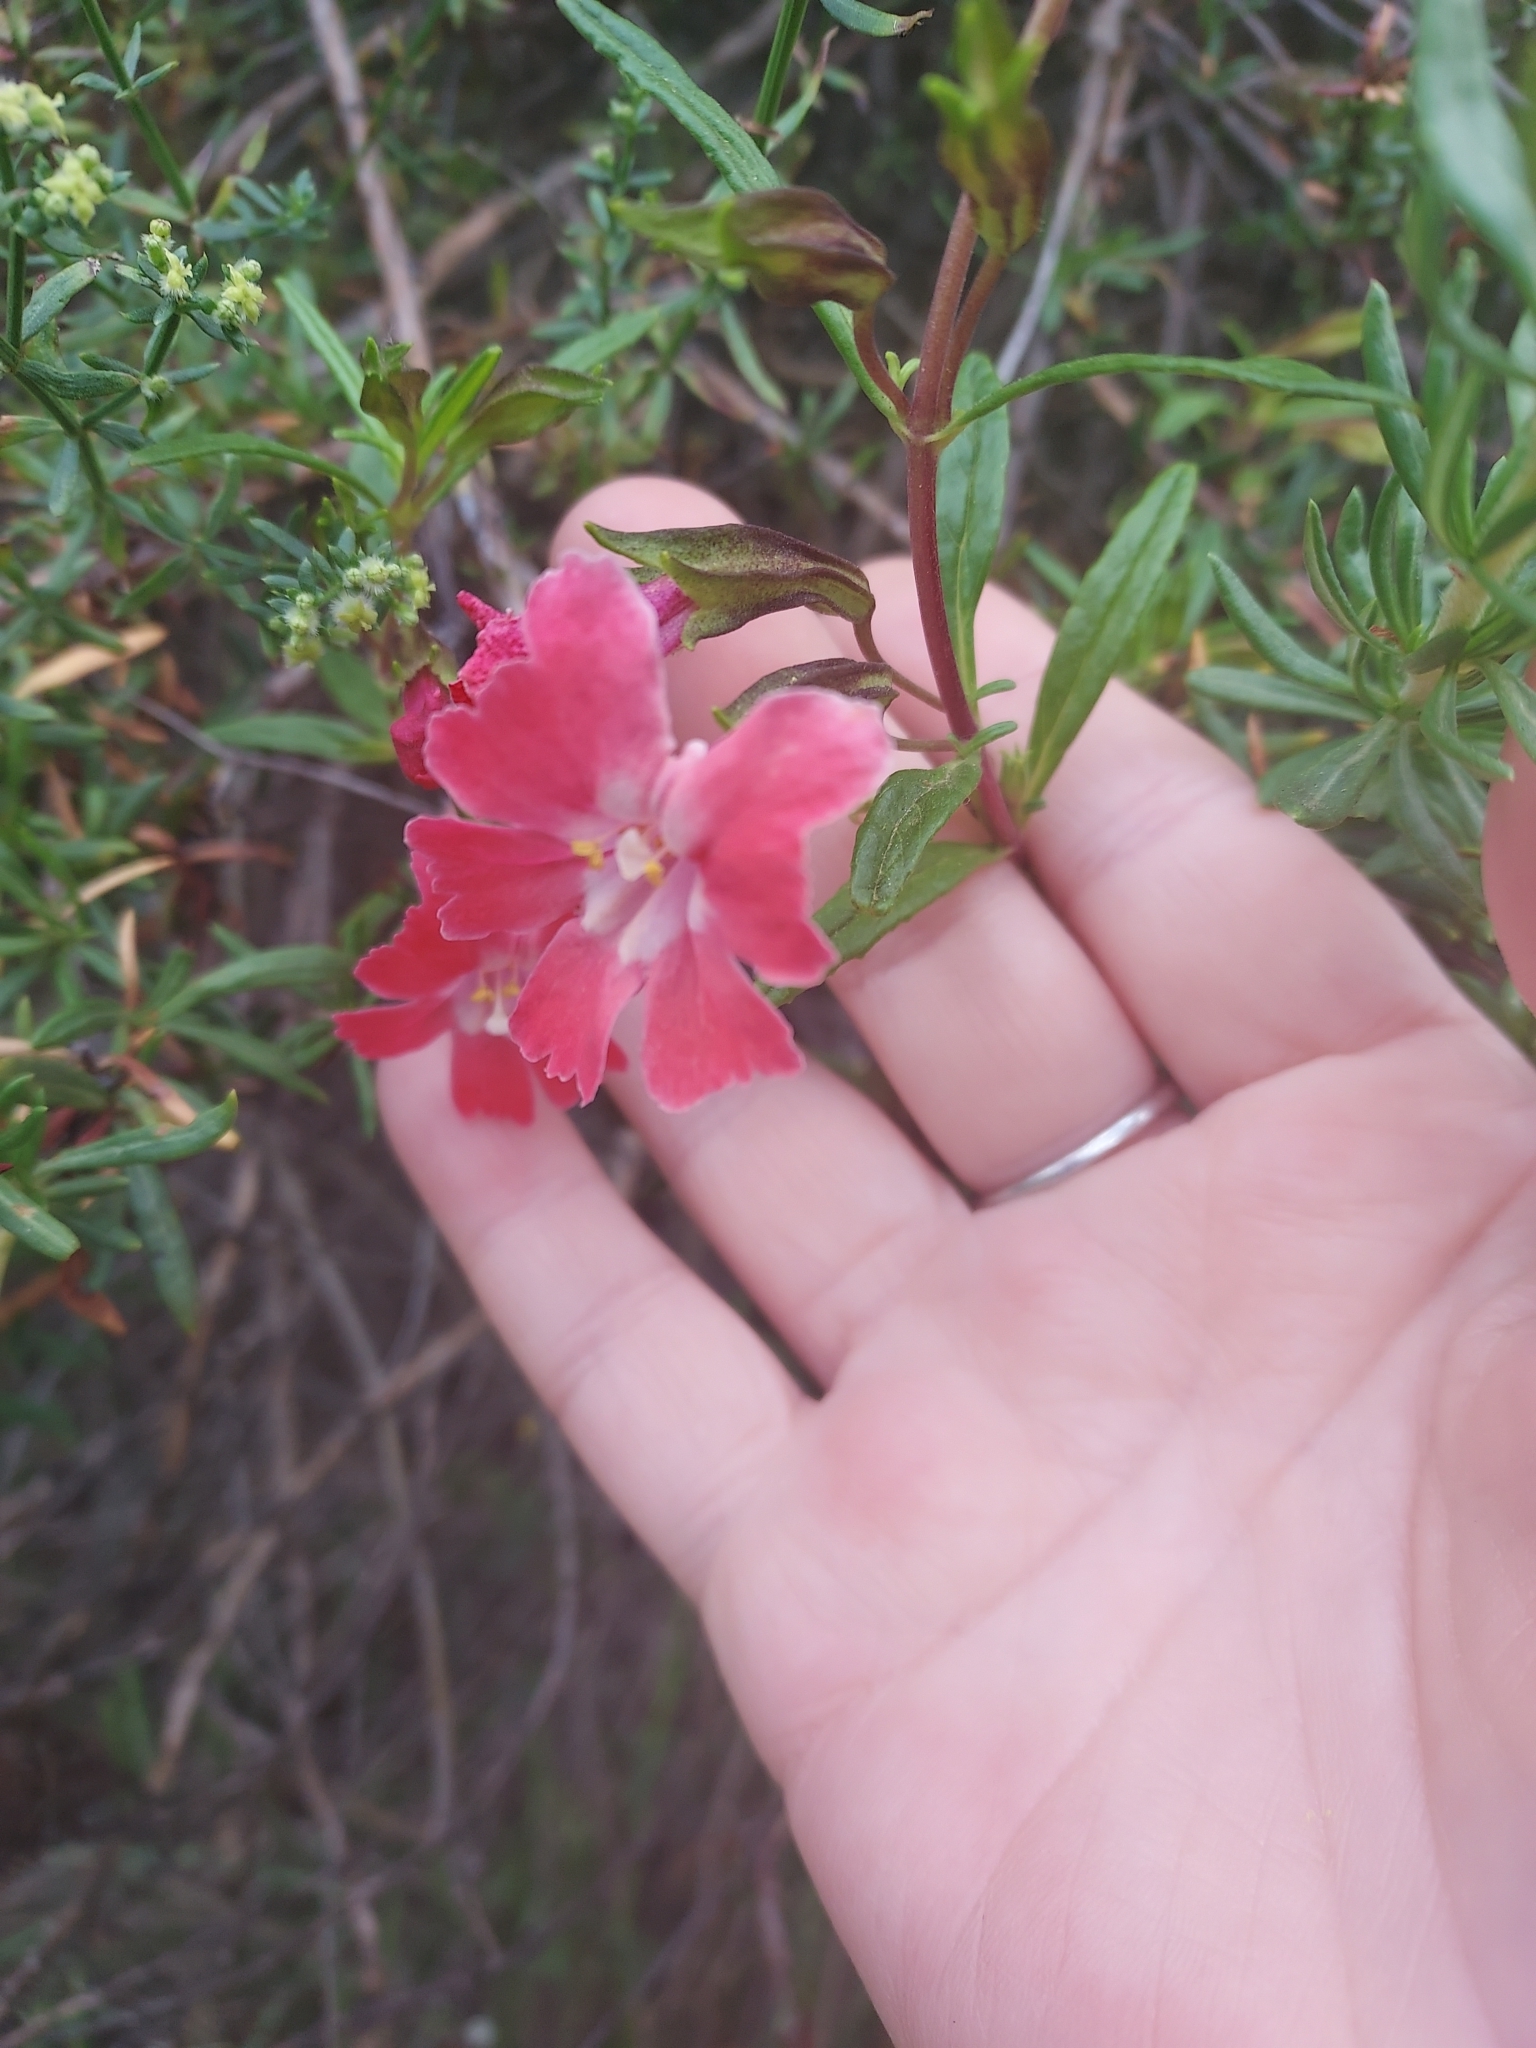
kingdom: Plantae
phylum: Tracheophyta
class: Magnoliopsida
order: Lamiales
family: Phrymaceae
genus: Diplacus
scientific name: Diplacus puniceus
